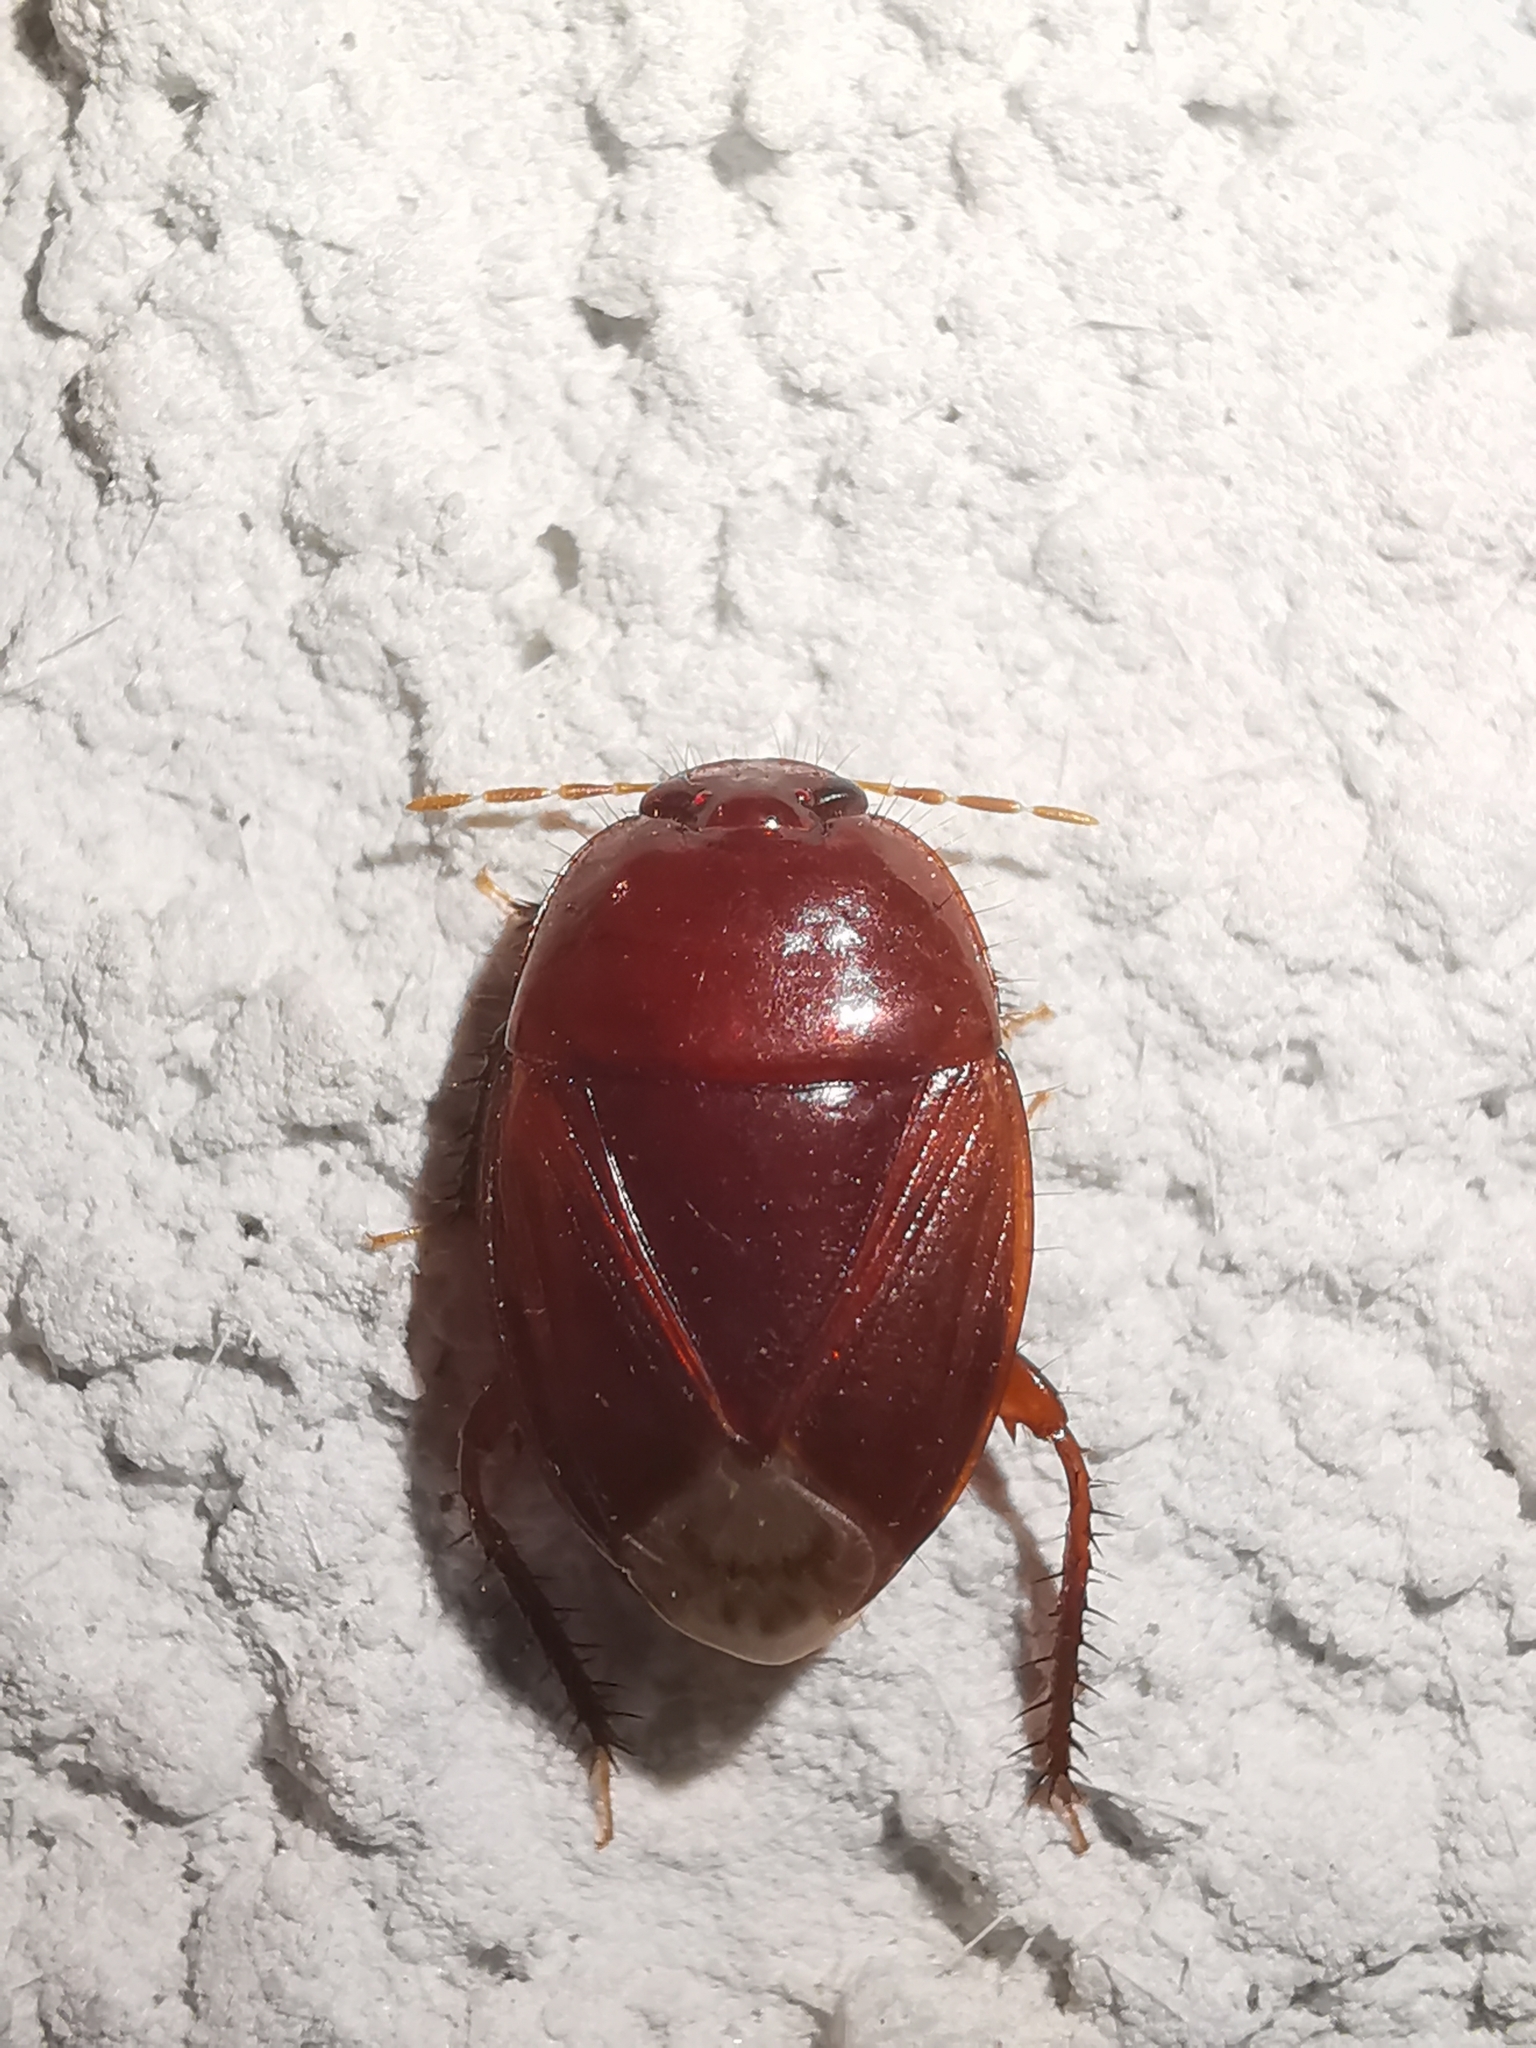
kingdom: Animalia
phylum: Arthropoda
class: Insecta
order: Hemiptera
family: Cydnidae
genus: Macroscytus
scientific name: Macroscytus brunneus
